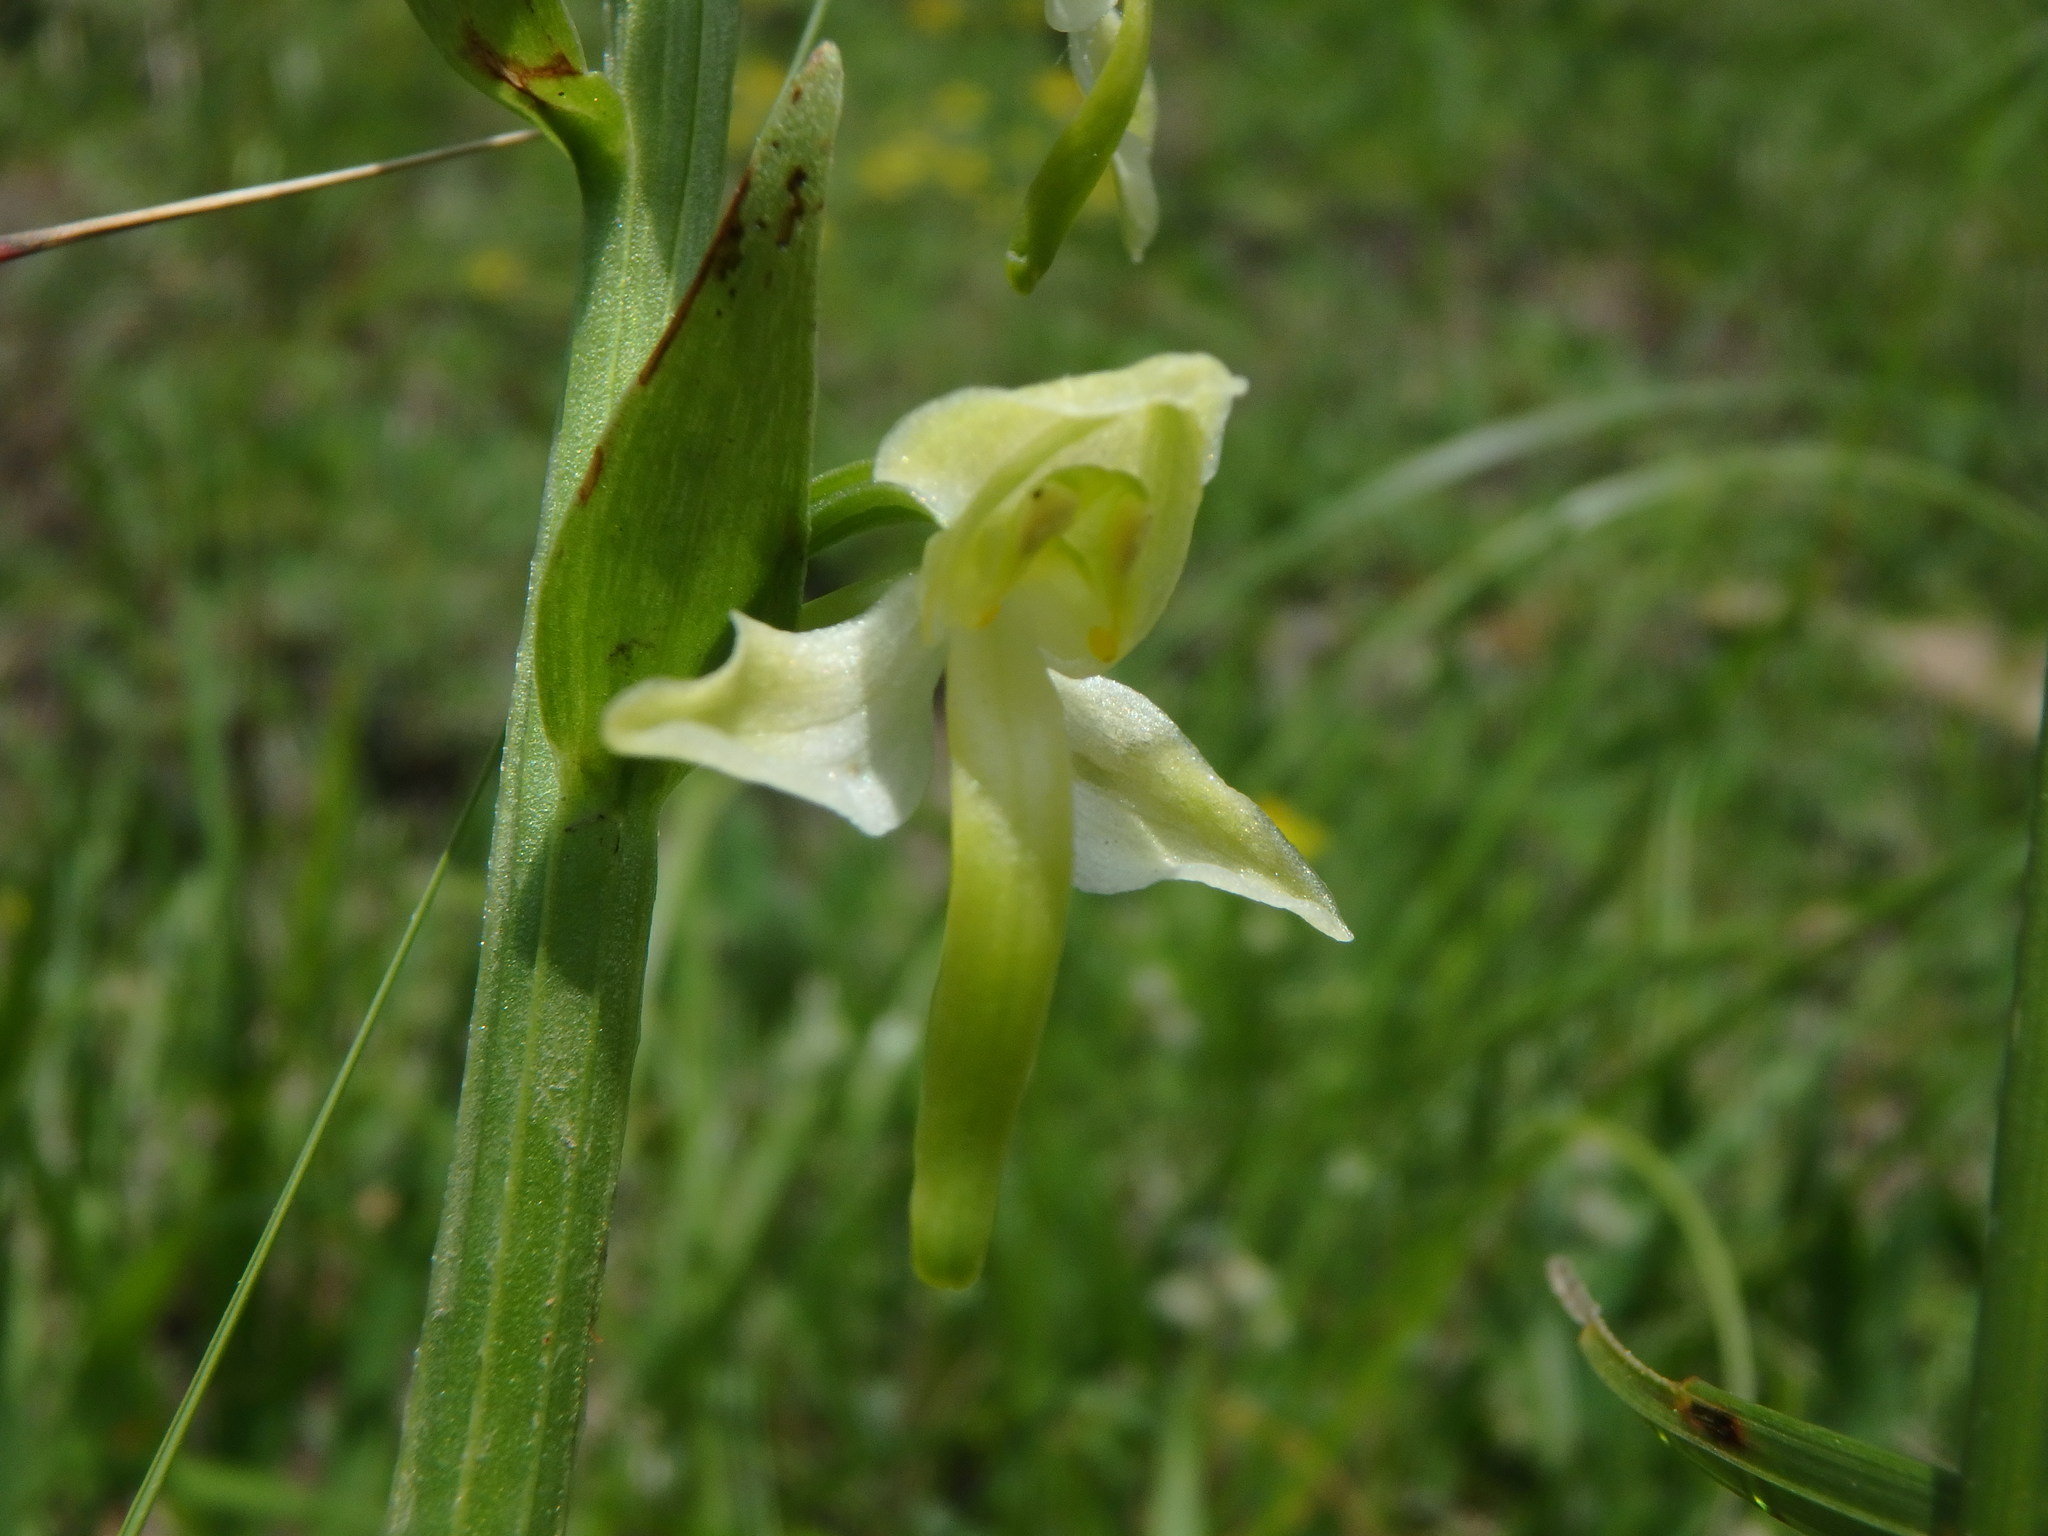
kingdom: Plantae
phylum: Tracheophyta
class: Liliopsida
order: Asparagales
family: Orchidaceae
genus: Platanthera
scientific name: Platanthera chlorantha
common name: Greater butterfly-orchid
